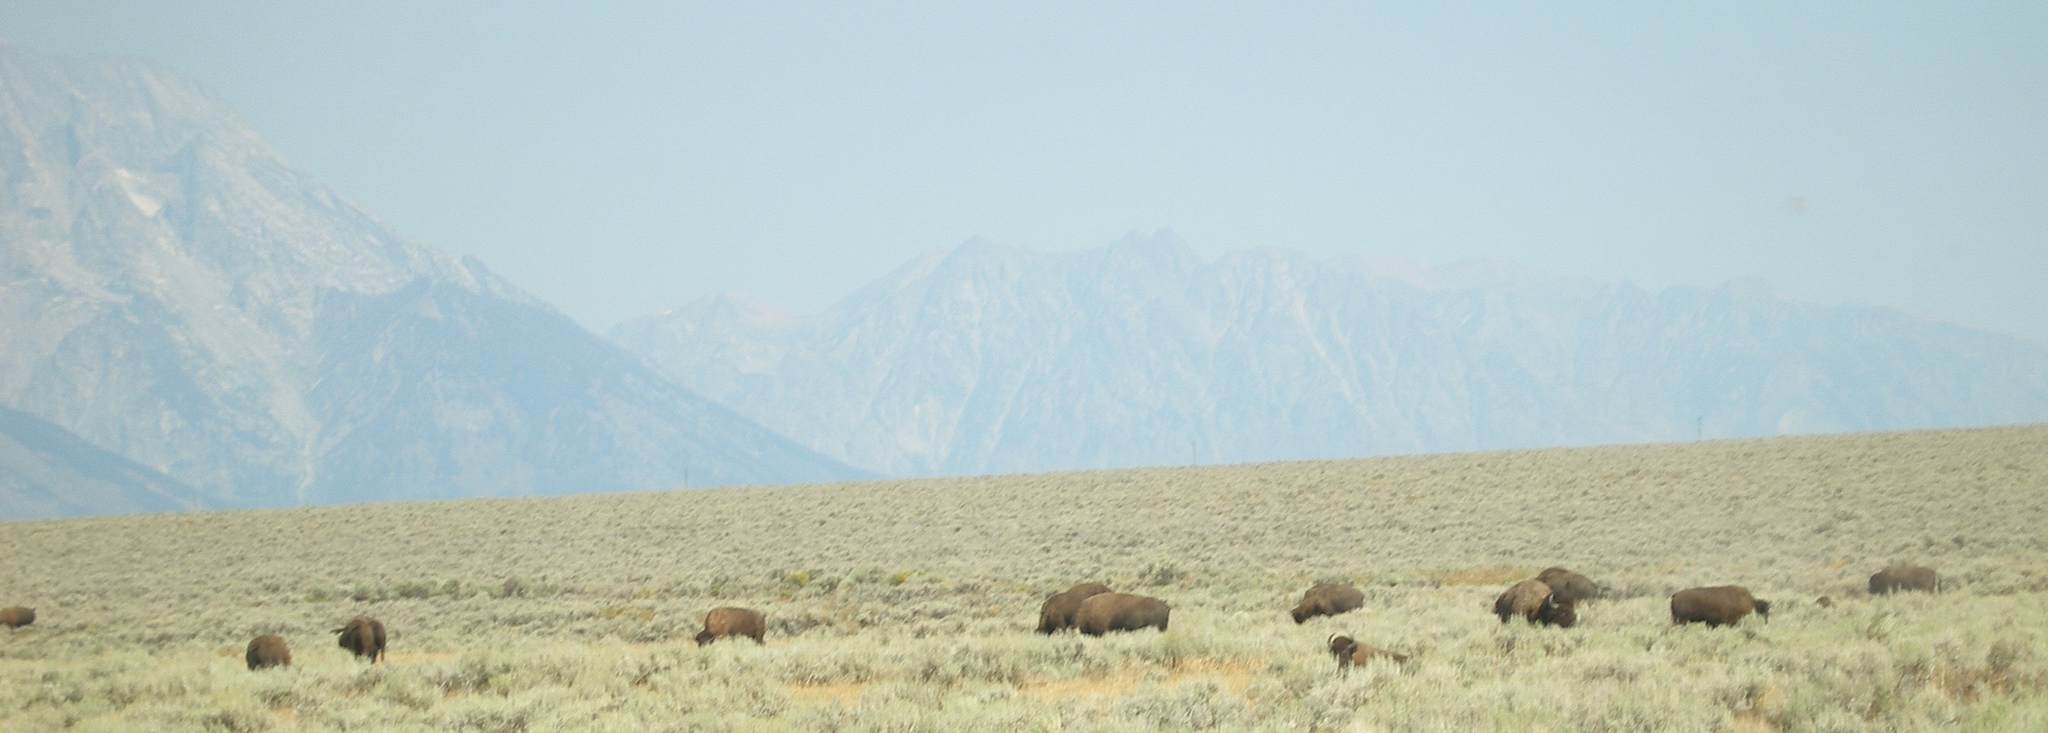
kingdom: Animalia
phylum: Chordata
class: Mammalia
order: Artiodactyla
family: Bovidae
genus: Bison
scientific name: Bison bison
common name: American bison
